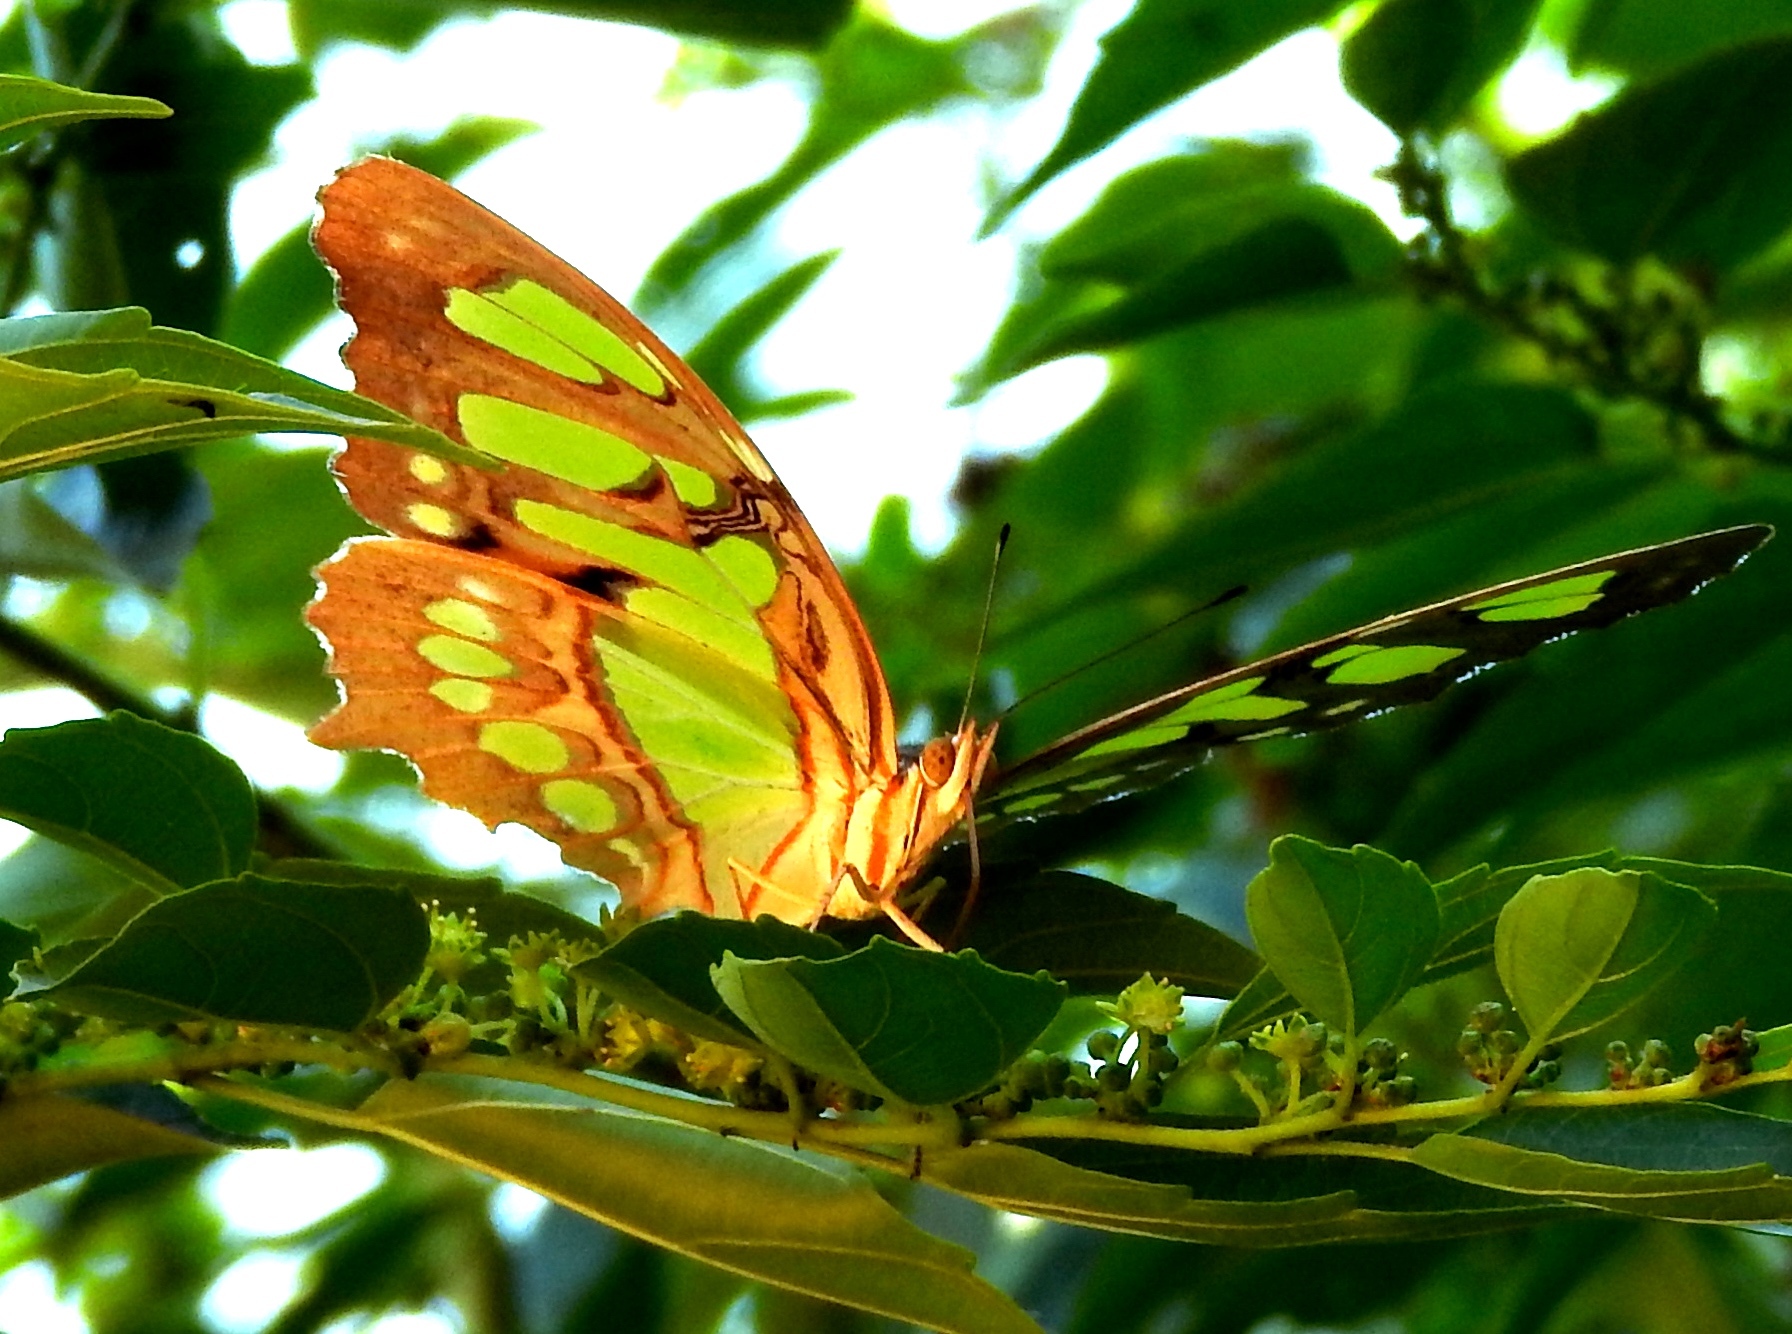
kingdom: Animalia
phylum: Arthropoda
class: Insecta
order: Lepidoptera
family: Nymphalidae
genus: Siproeta
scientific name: Siproeta stelenes
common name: Malachite
